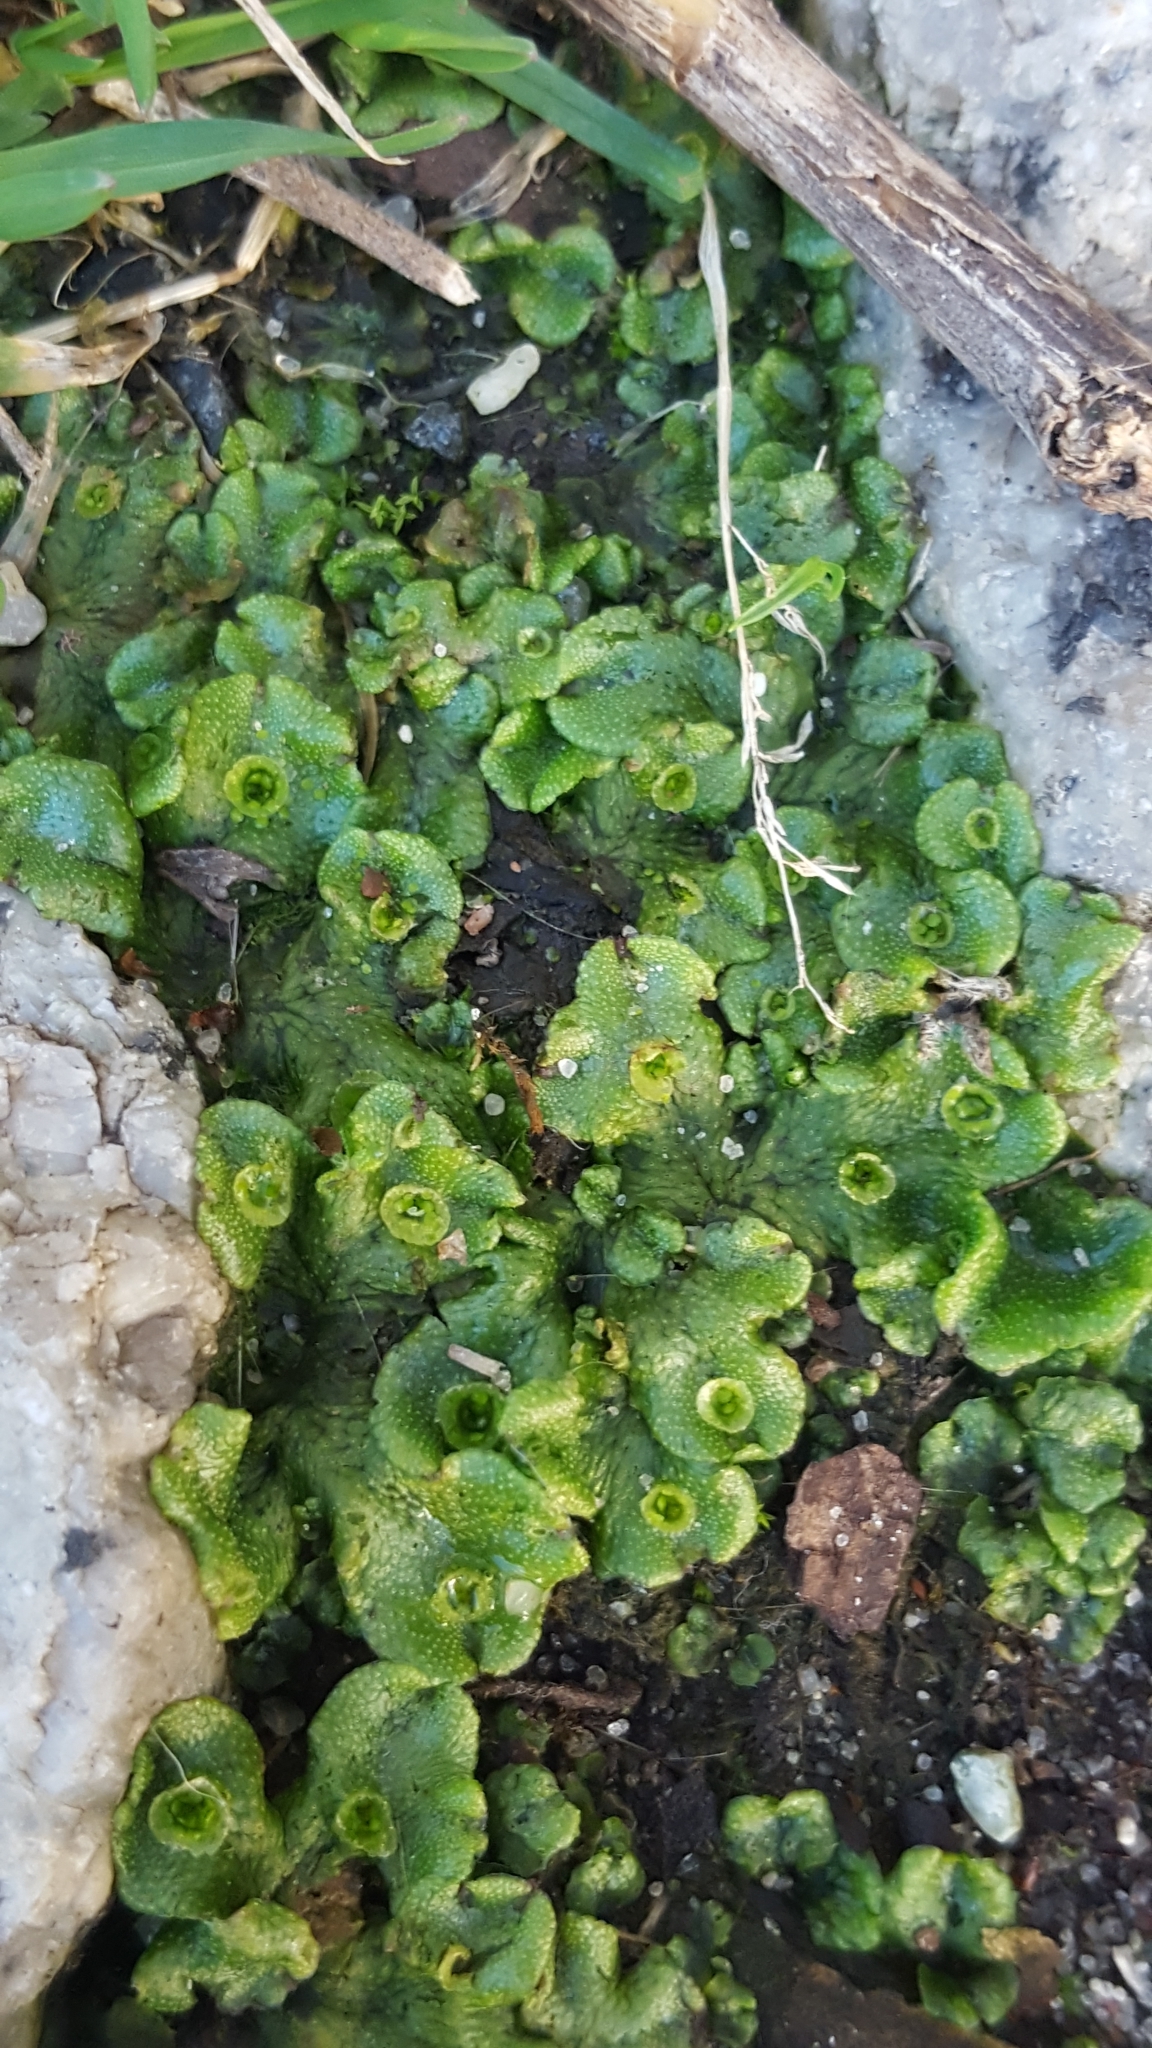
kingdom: Plantae
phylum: Marchantiophyta
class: Marchantiopsida
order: Marchantiales
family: Marchantiaceae
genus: Marchantia
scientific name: Marchantia polymorpha
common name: Common liverwort
